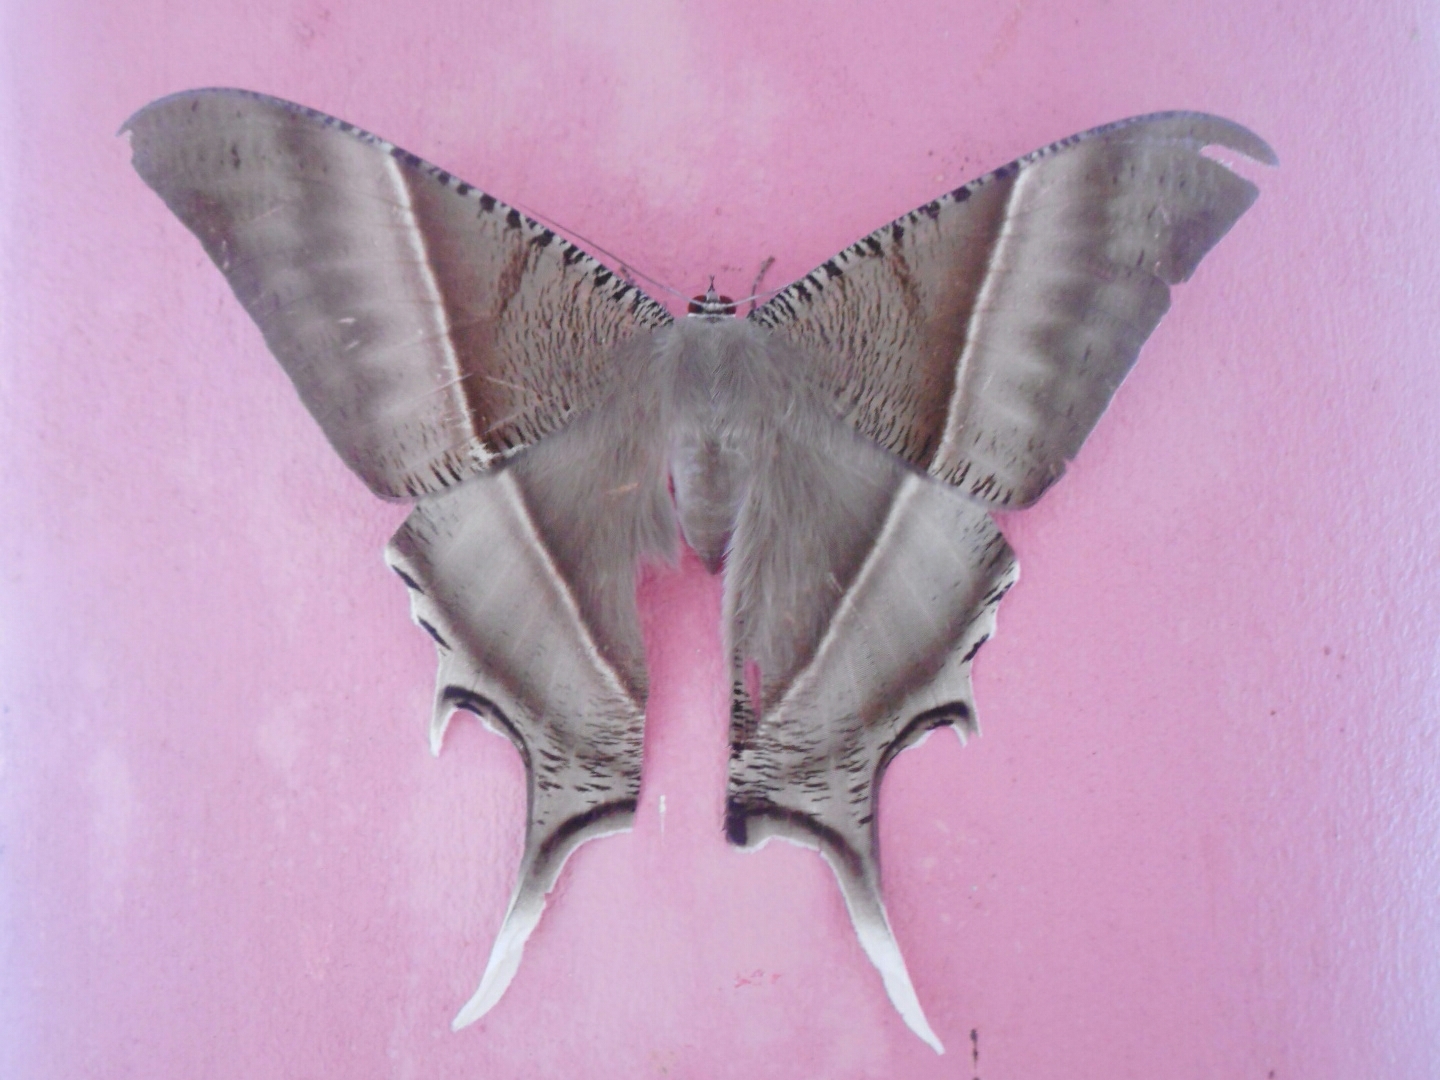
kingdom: Animalia
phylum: Arthropoda
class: Insecta
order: Lepidoptera
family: Uraniidae
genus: Lyssa
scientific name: Lyssa zampa
